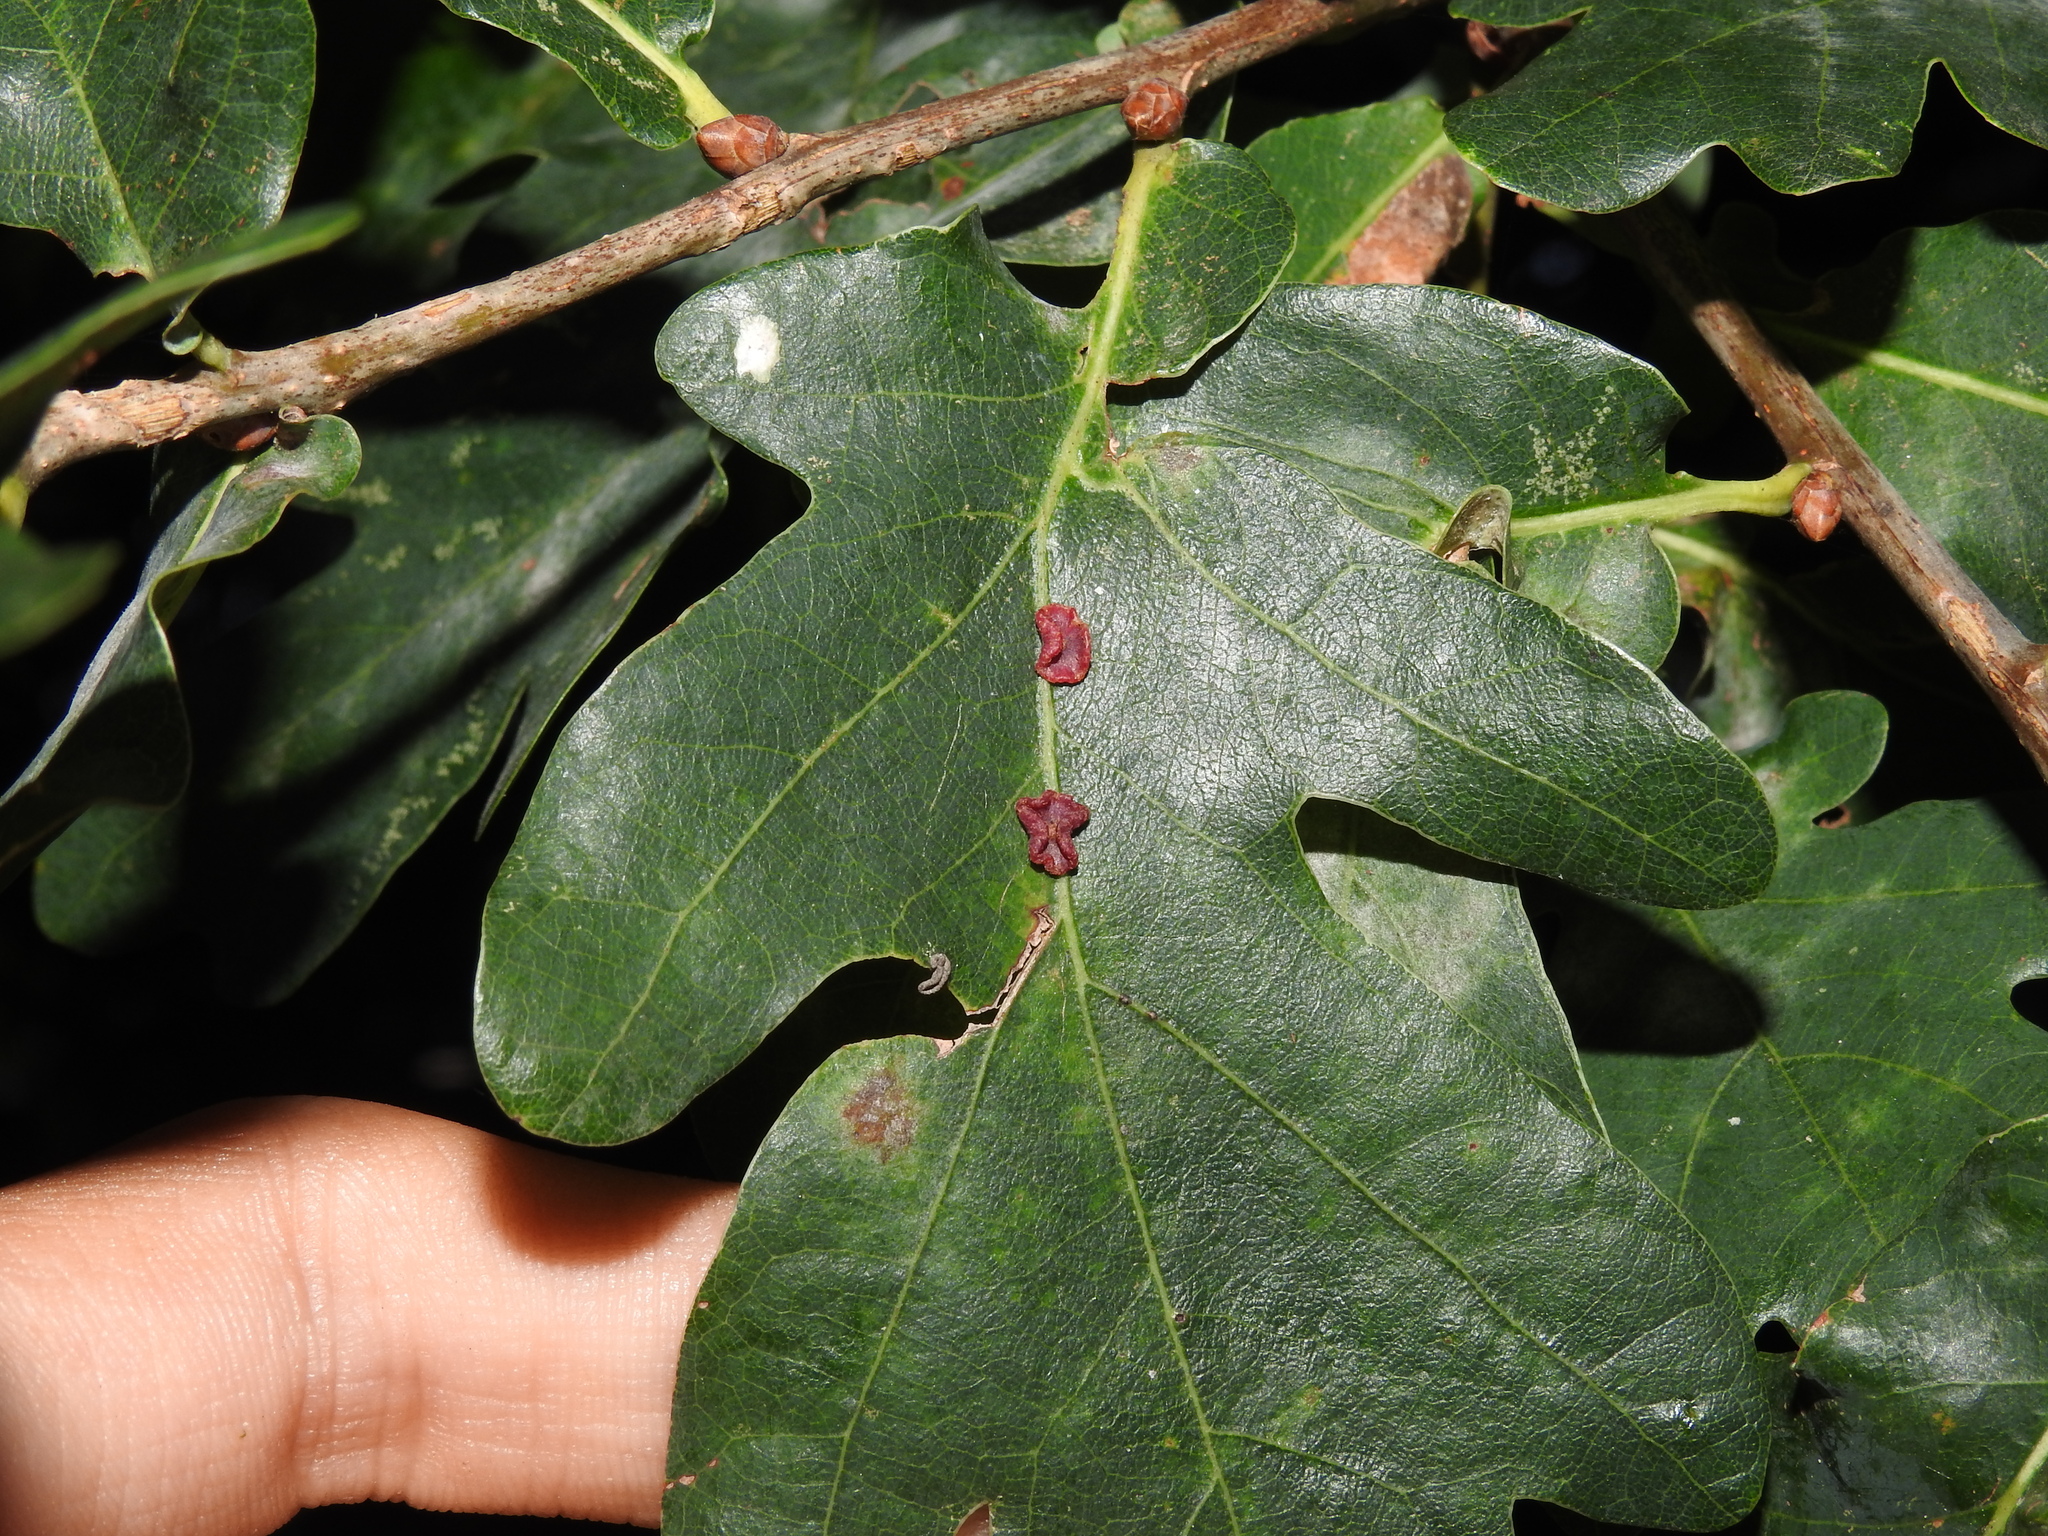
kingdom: Animalia
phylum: Arthropoda
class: Insecta
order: Hymenoptera
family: Cynipidae
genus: Neuroterus
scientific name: Neuroterus albipes
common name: Smooth spangle gall
